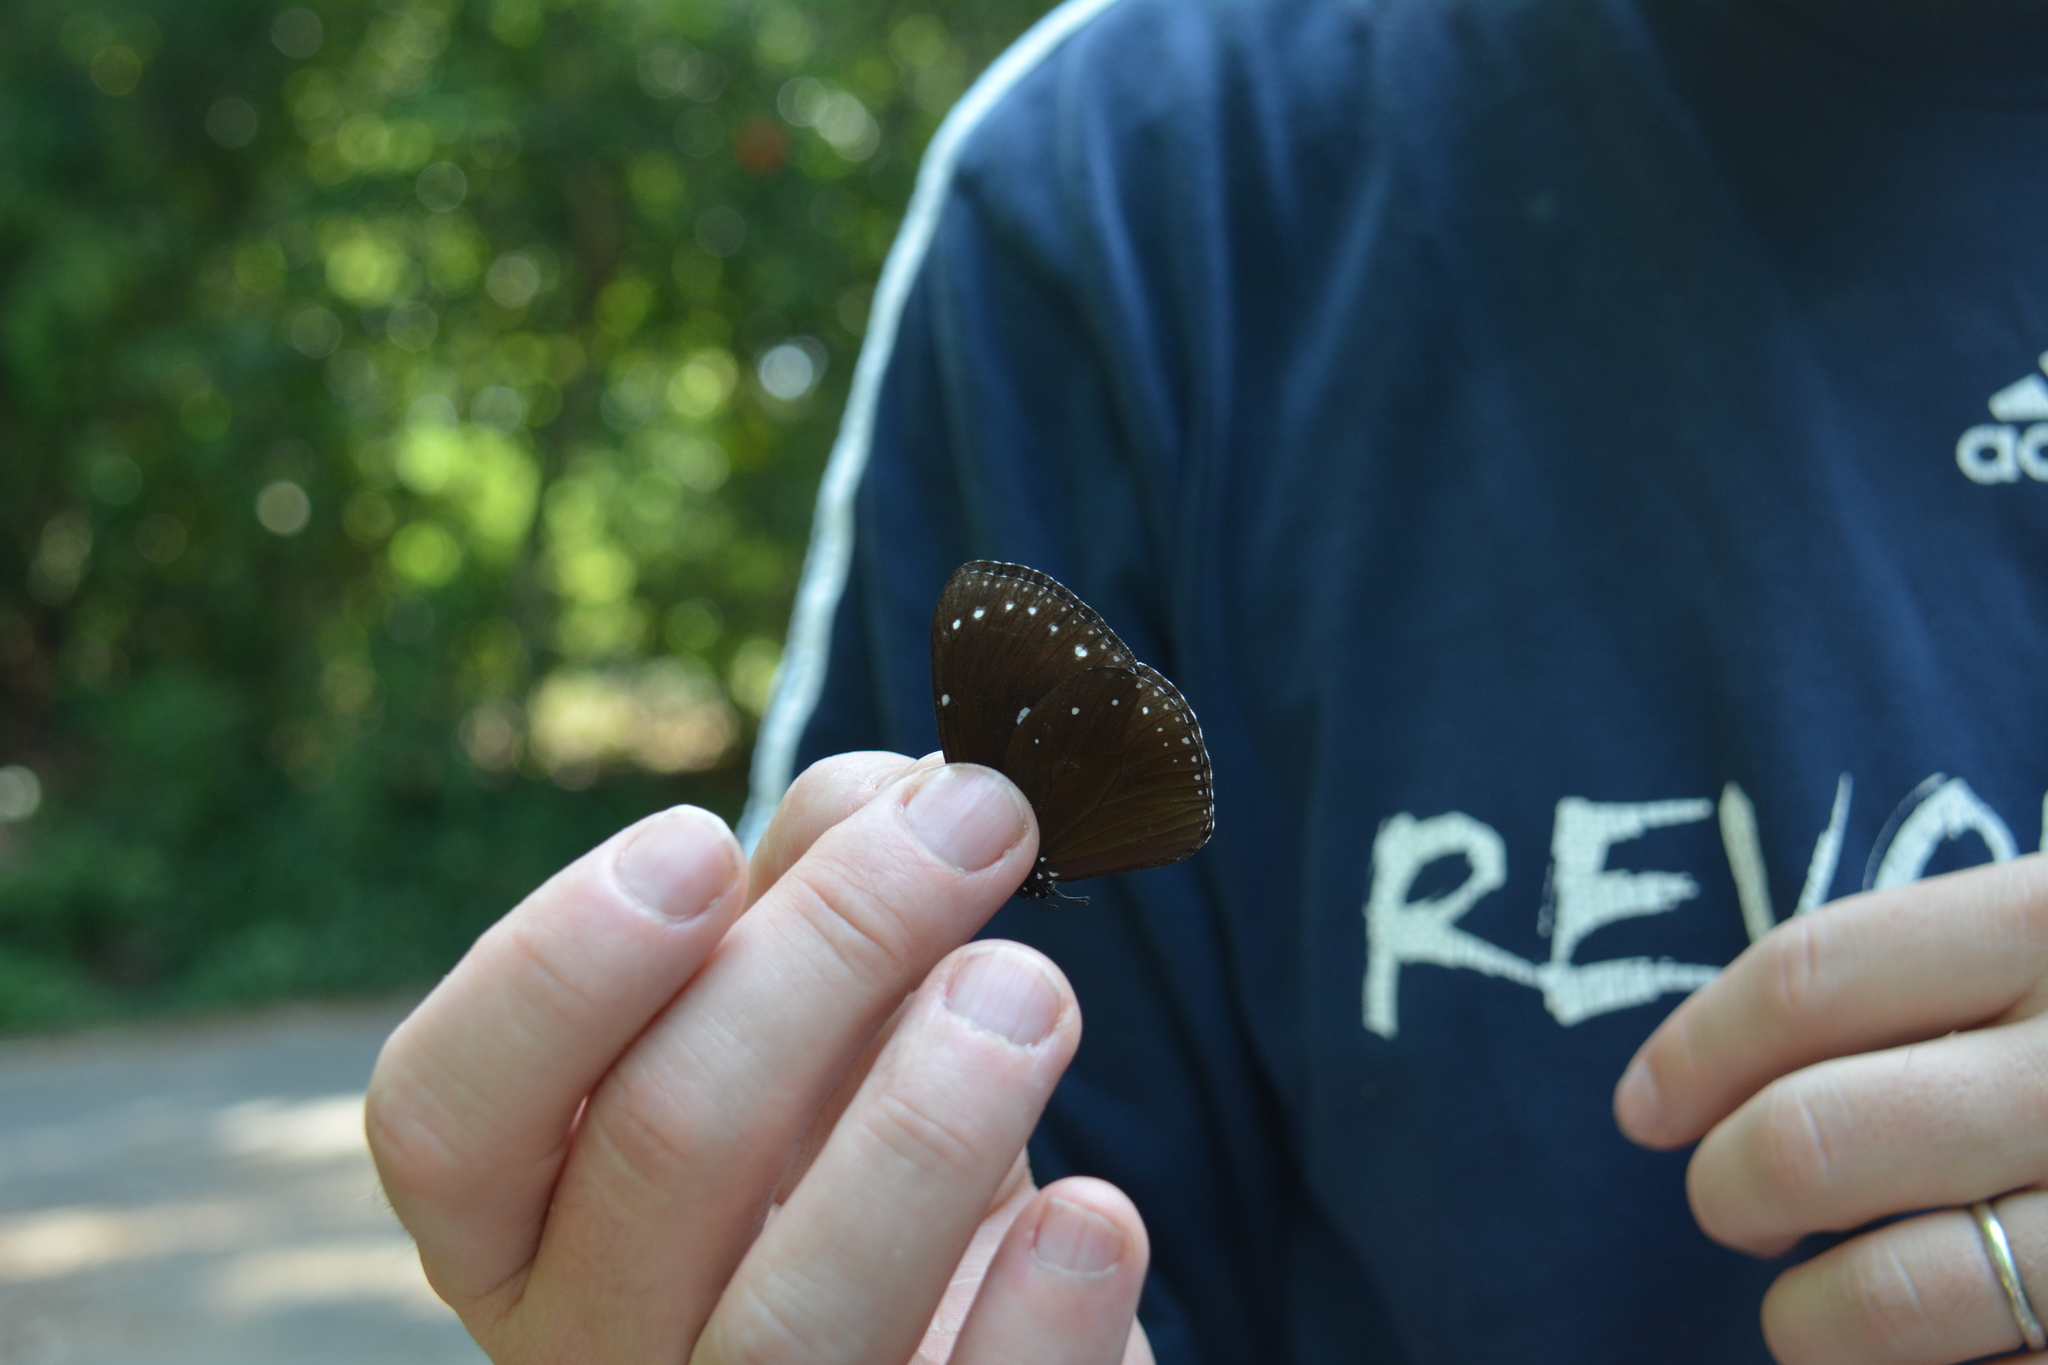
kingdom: Animalia
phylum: Arthropoda
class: Insecta
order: Lepidoptera
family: Nymphalidae
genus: Euploea
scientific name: Euploea tulliolus
